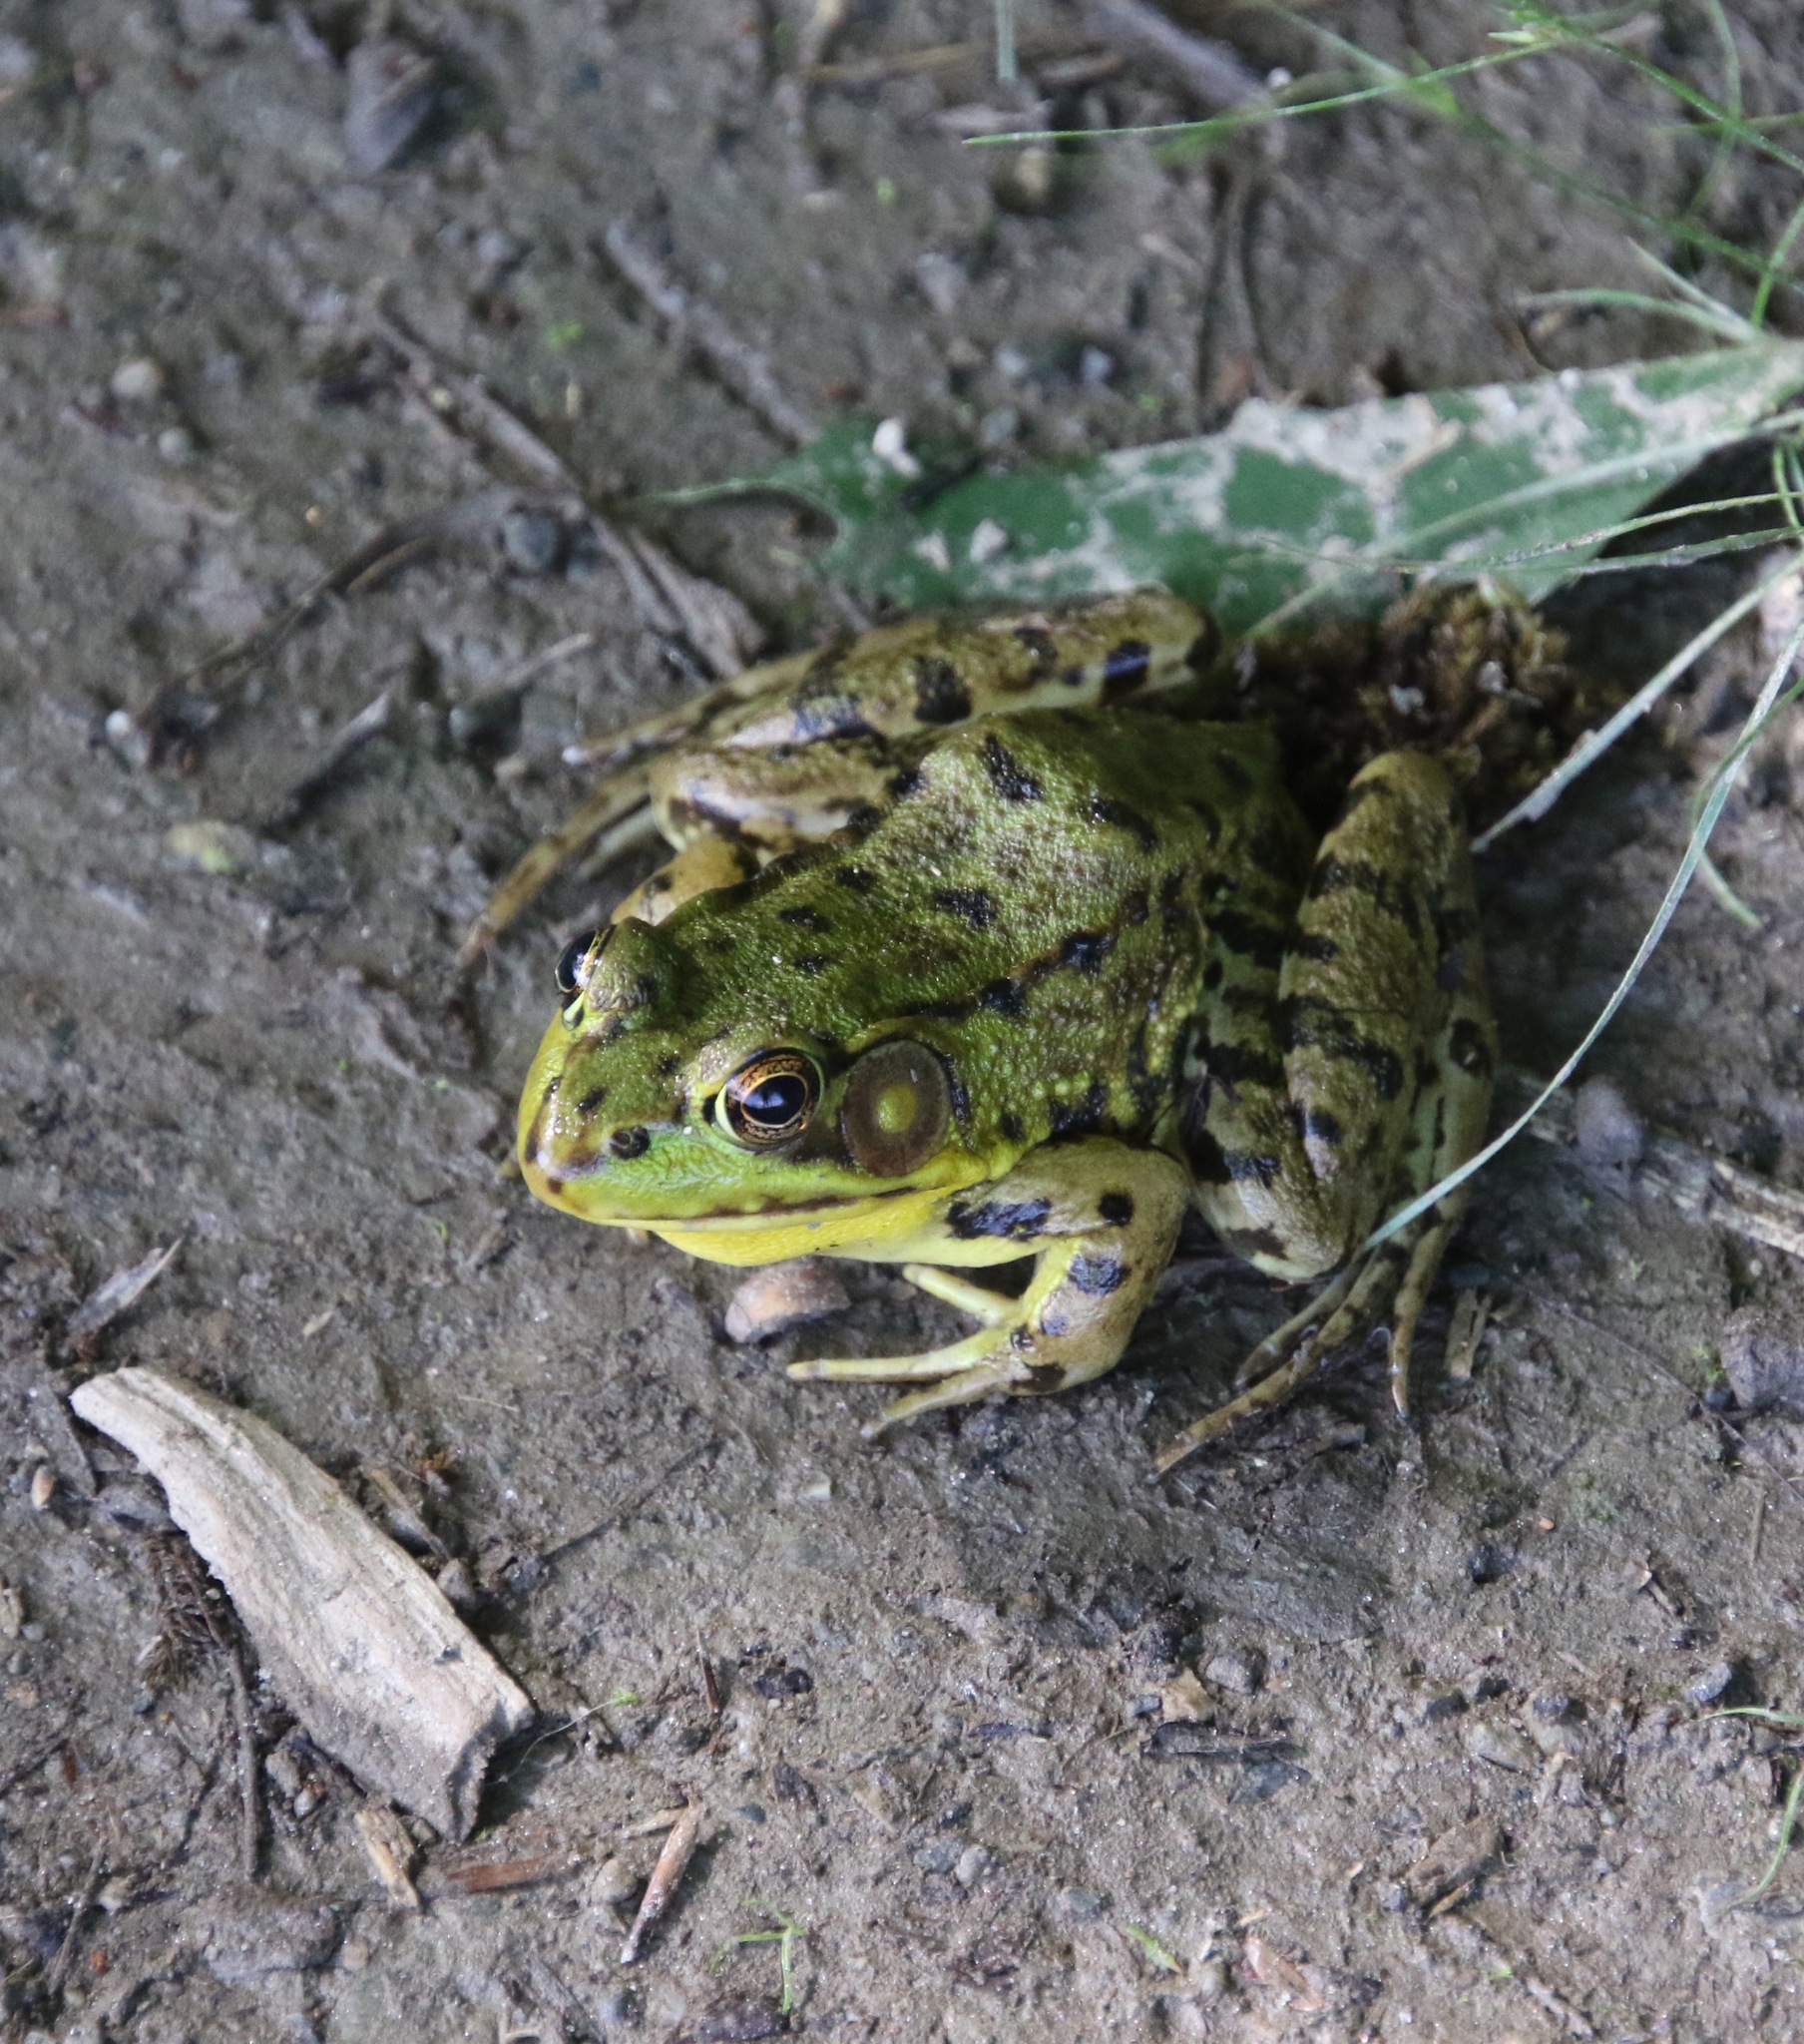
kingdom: Animalia
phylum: Chordata
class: Amphibia
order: Anura
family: Ranidae
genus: Lithobates
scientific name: Lithobates clamitans
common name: Green frog
